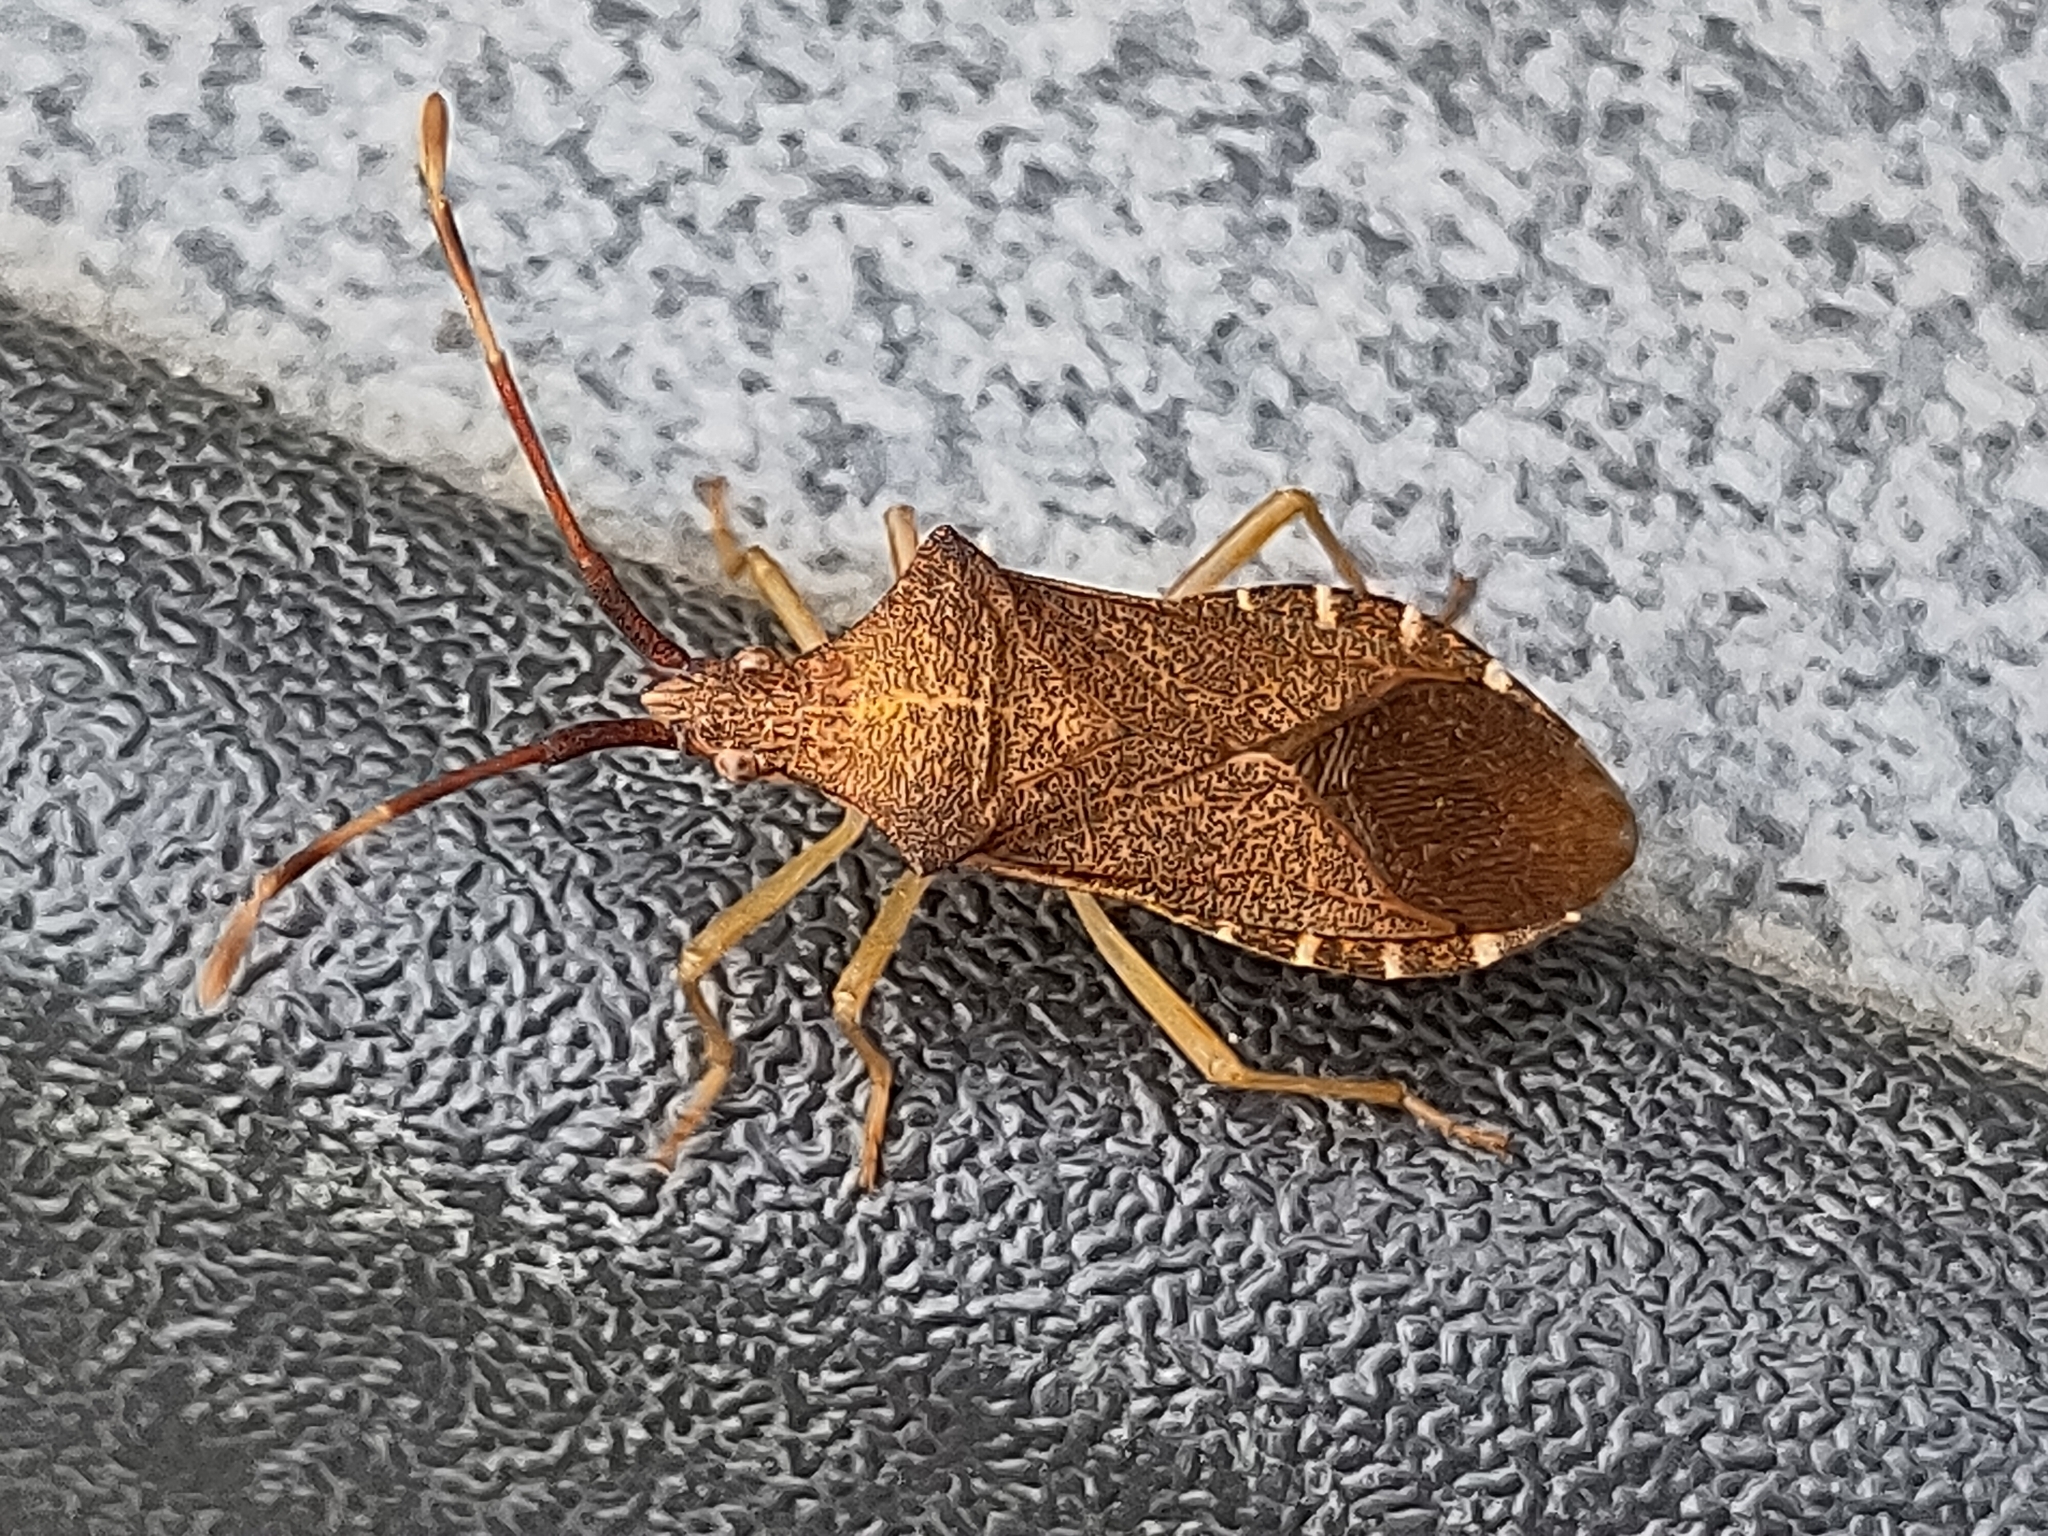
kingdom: Animalia
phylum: Arthropoda
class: Insecta
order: Hemiptera
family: Coreidae
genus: Gonocerus
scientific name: Gonocerus acuteangulatus
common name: Box bug
